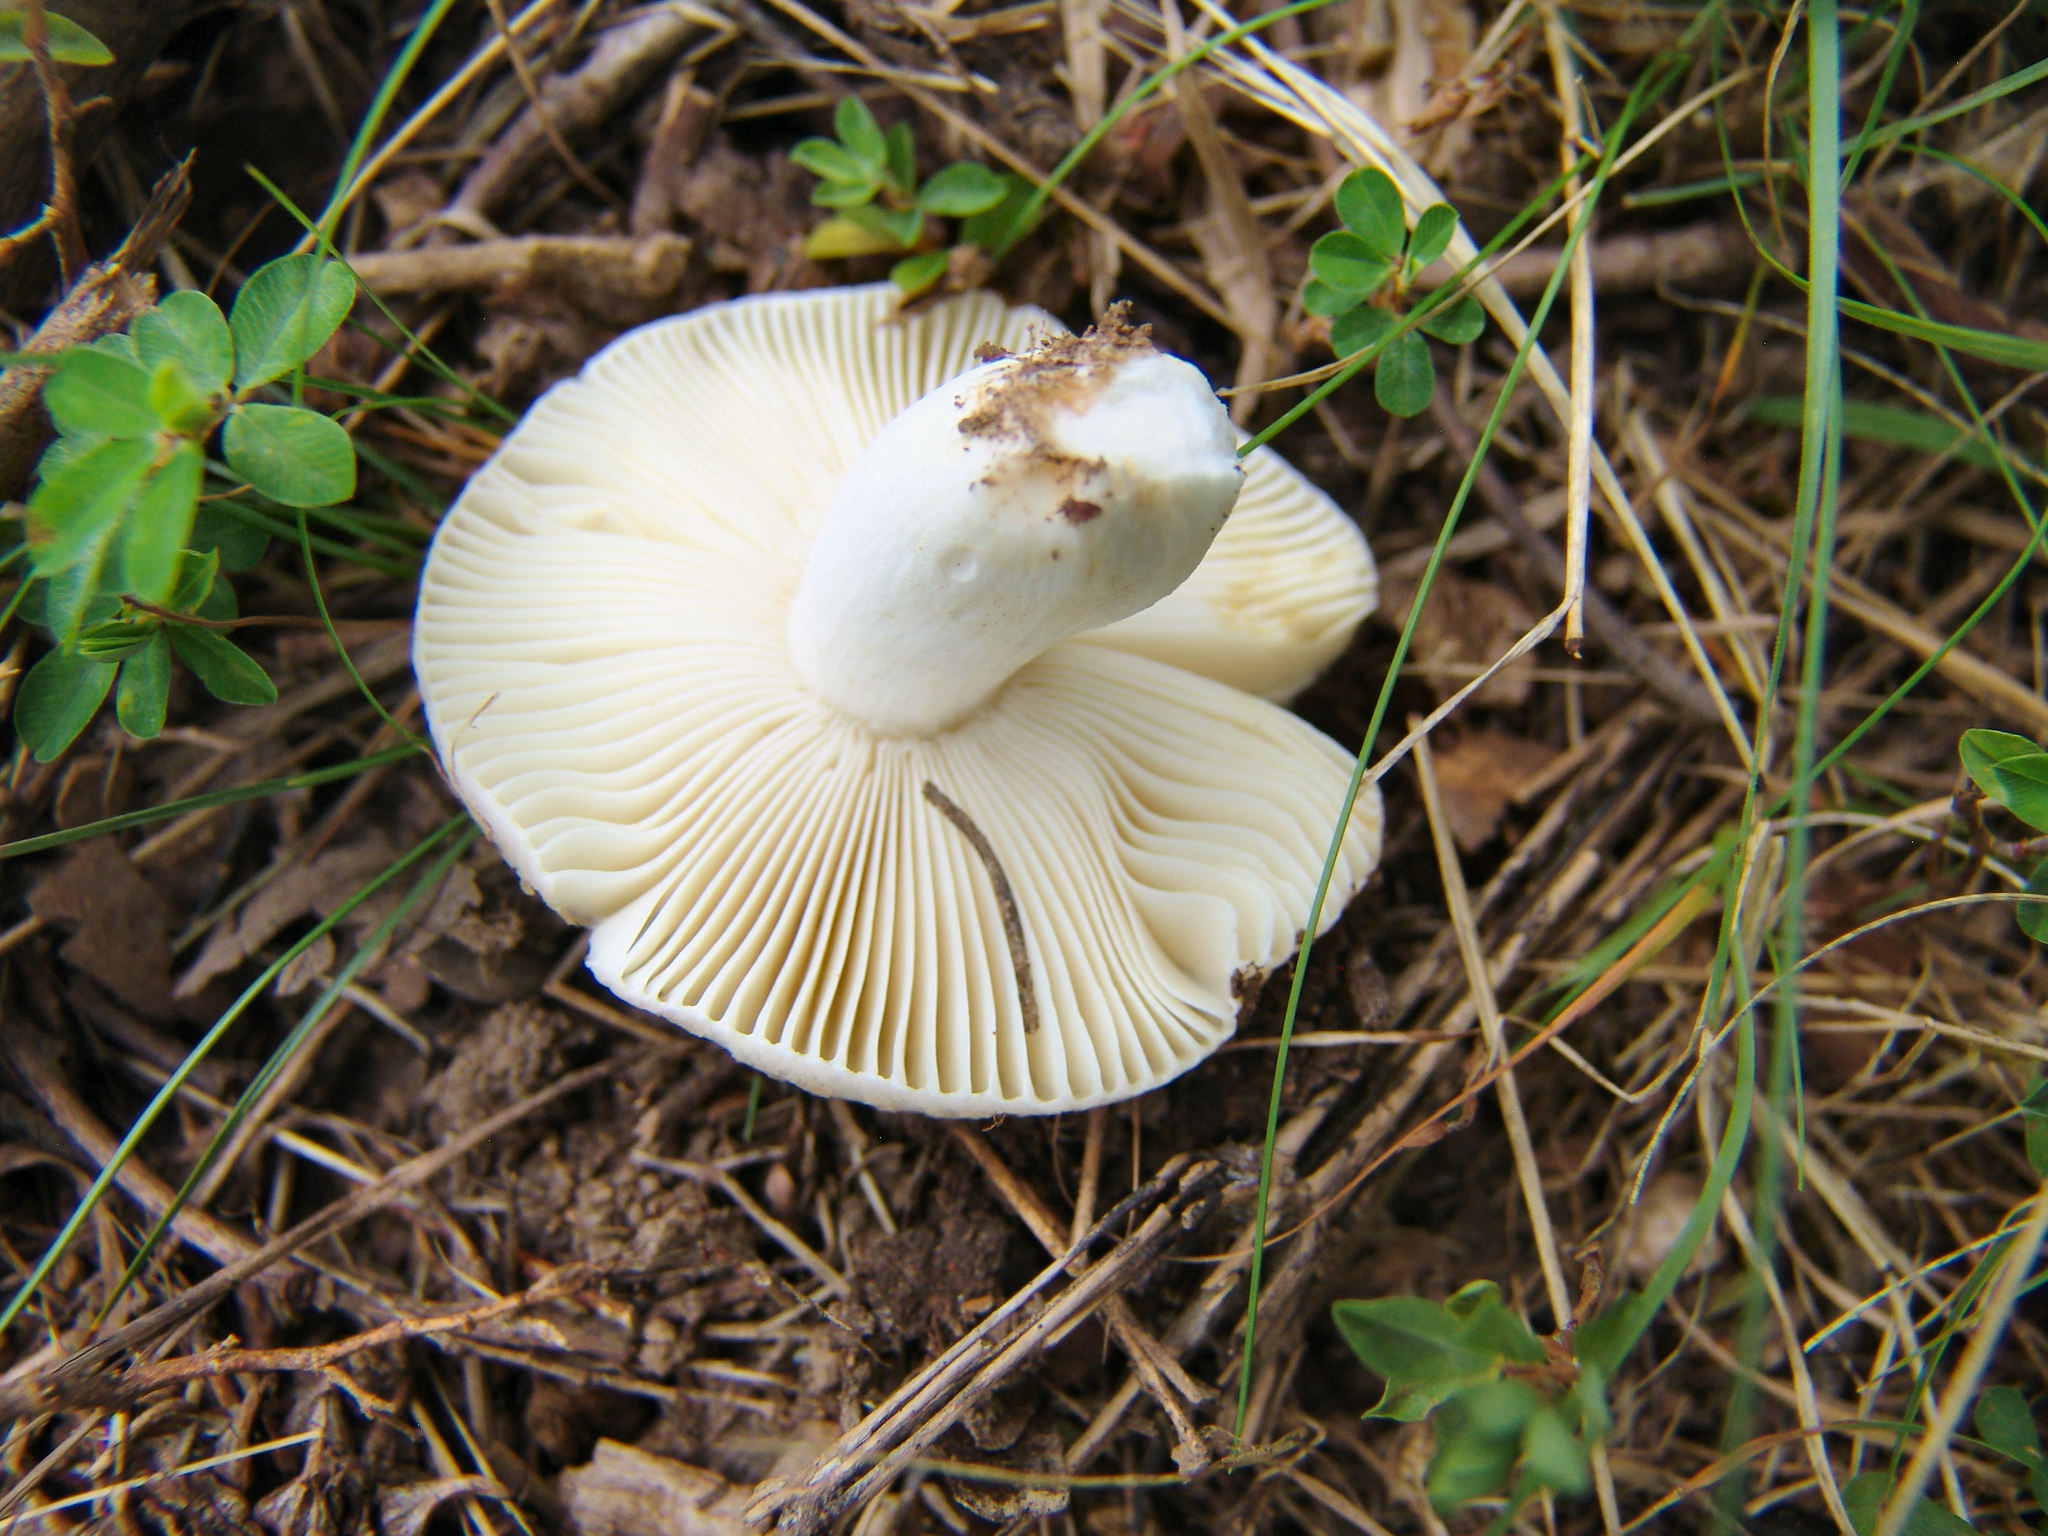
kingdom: Fungi
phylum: Basidiomycota
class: Agaricomycetes
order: Russulales
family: Russulaceae
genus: Russula
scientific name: Russula
